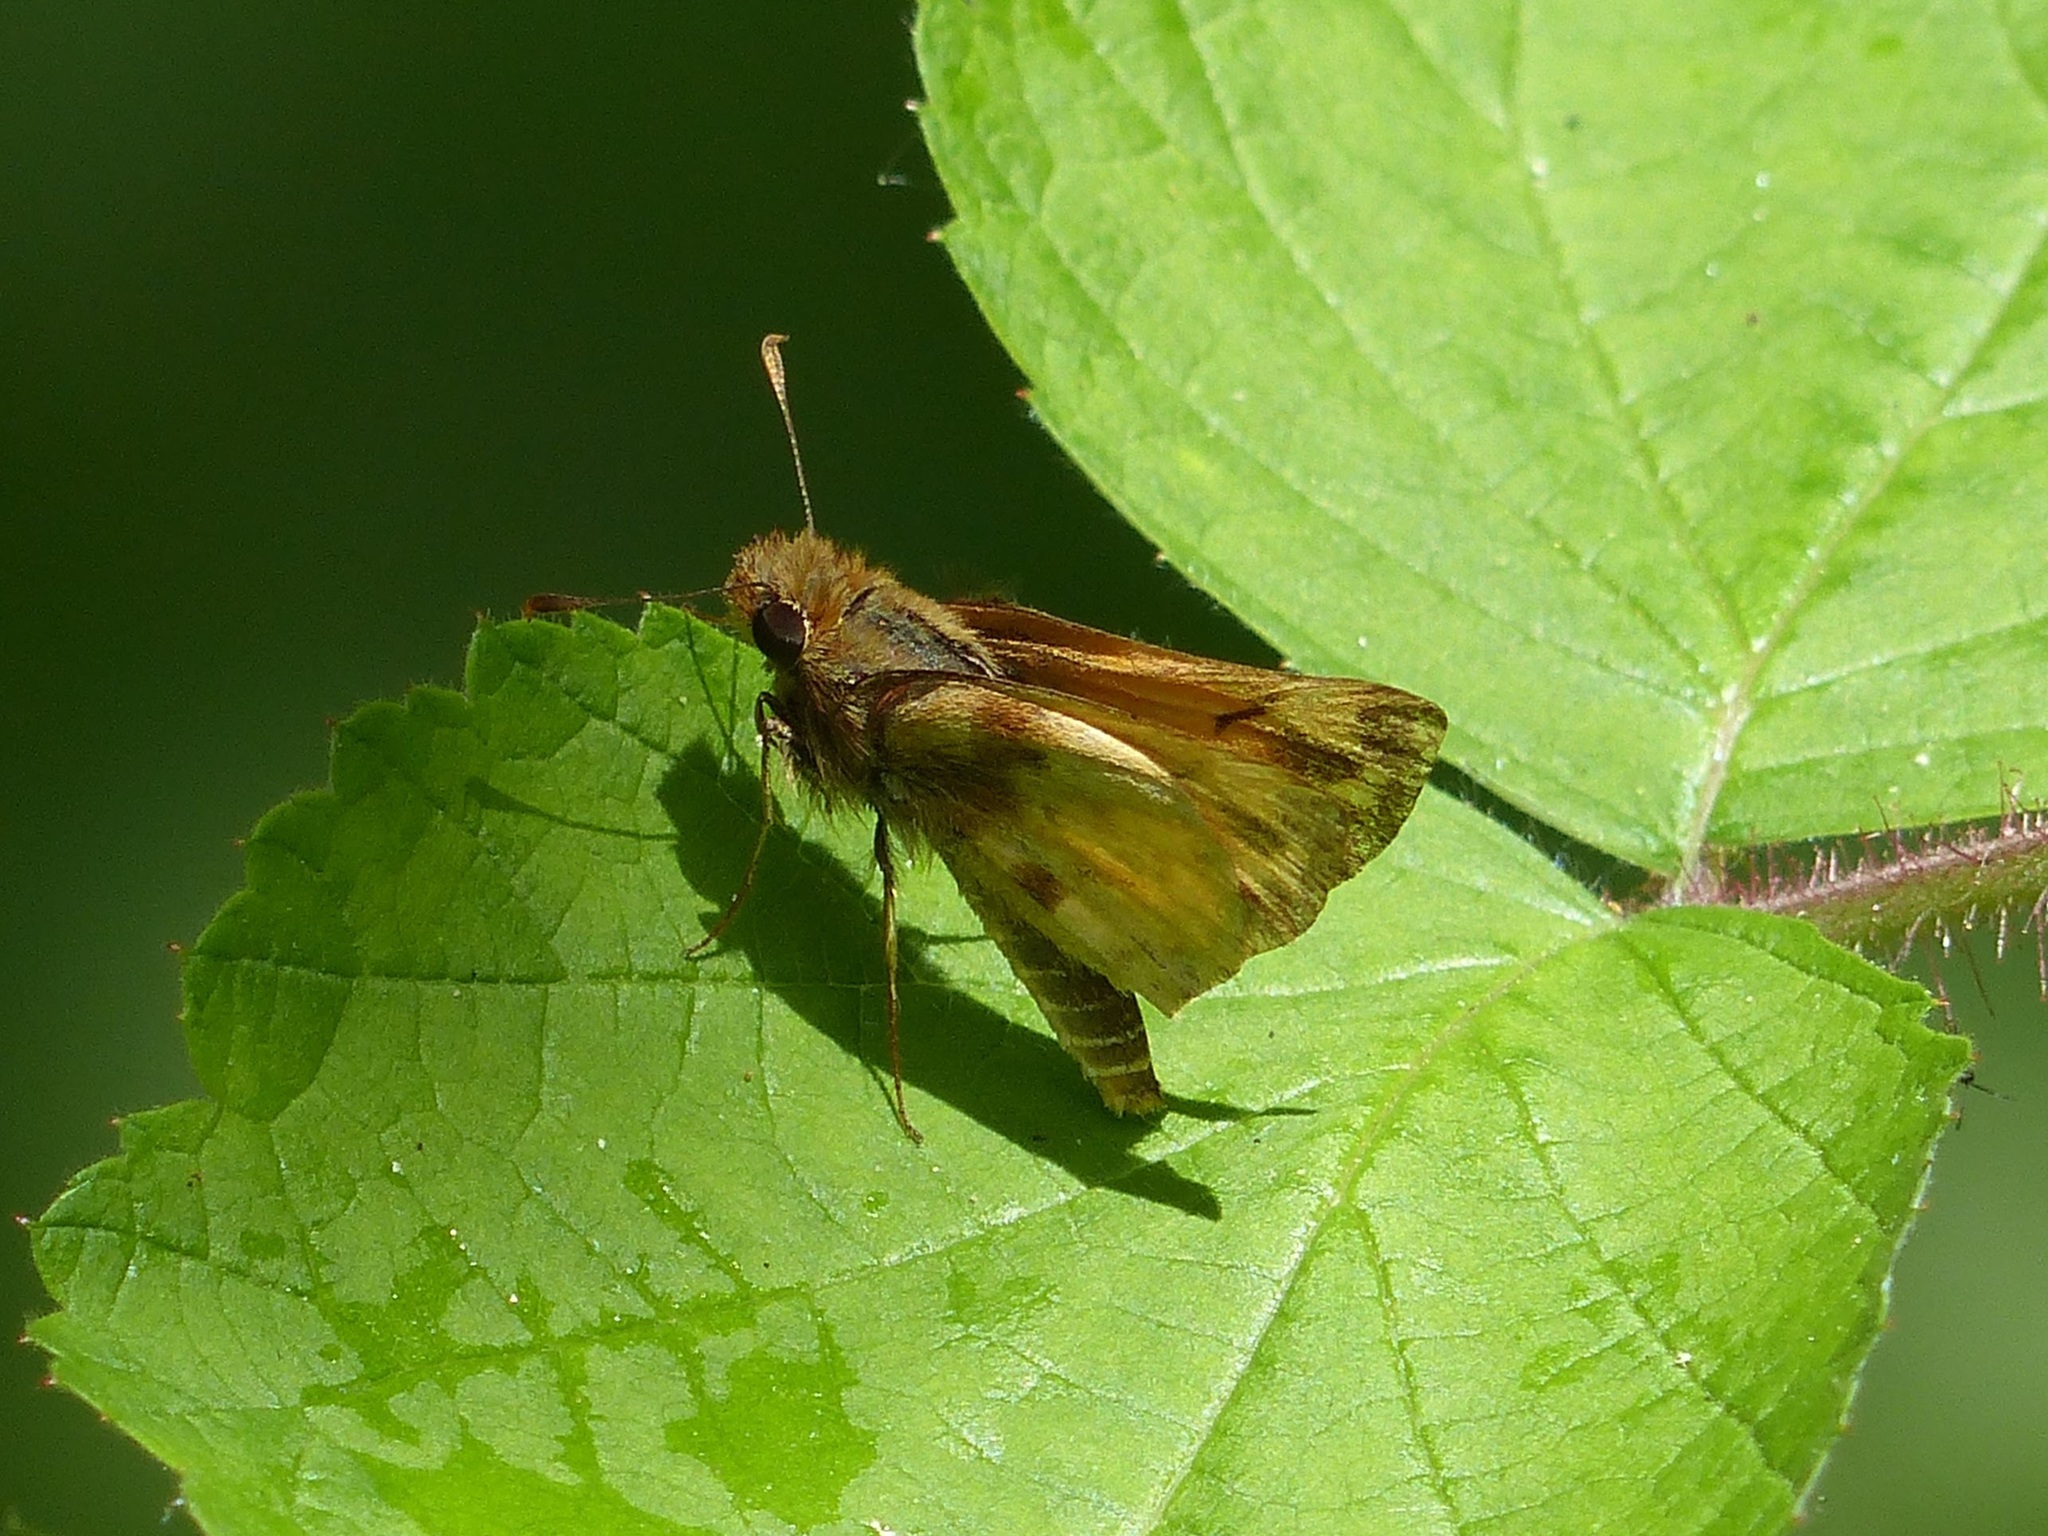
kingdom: Animalia
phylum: Arthropoda
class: Insecta
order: Lepidoptera
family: Hesperiidae
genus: Lon
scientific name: Lon zabulon
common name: Zabulon skipper
